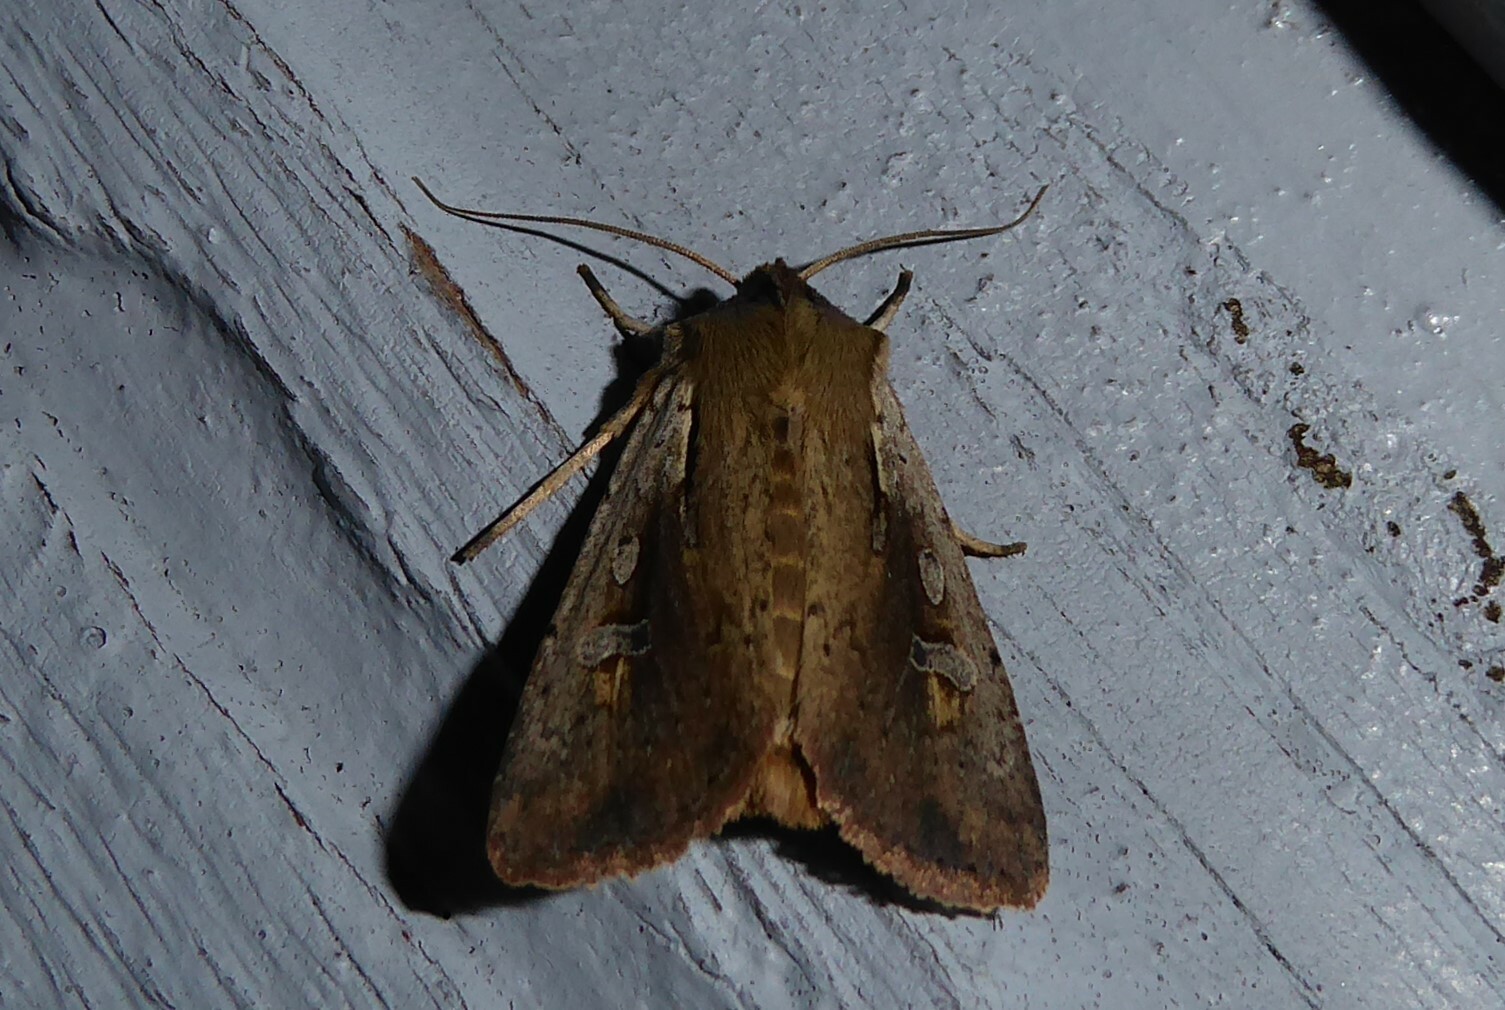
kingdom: Animalia
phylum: Arthropoda
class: Insecta
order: Lepidoptera
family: Noctuidae
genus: Ichneutica
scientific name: Ichneutica atristriga
